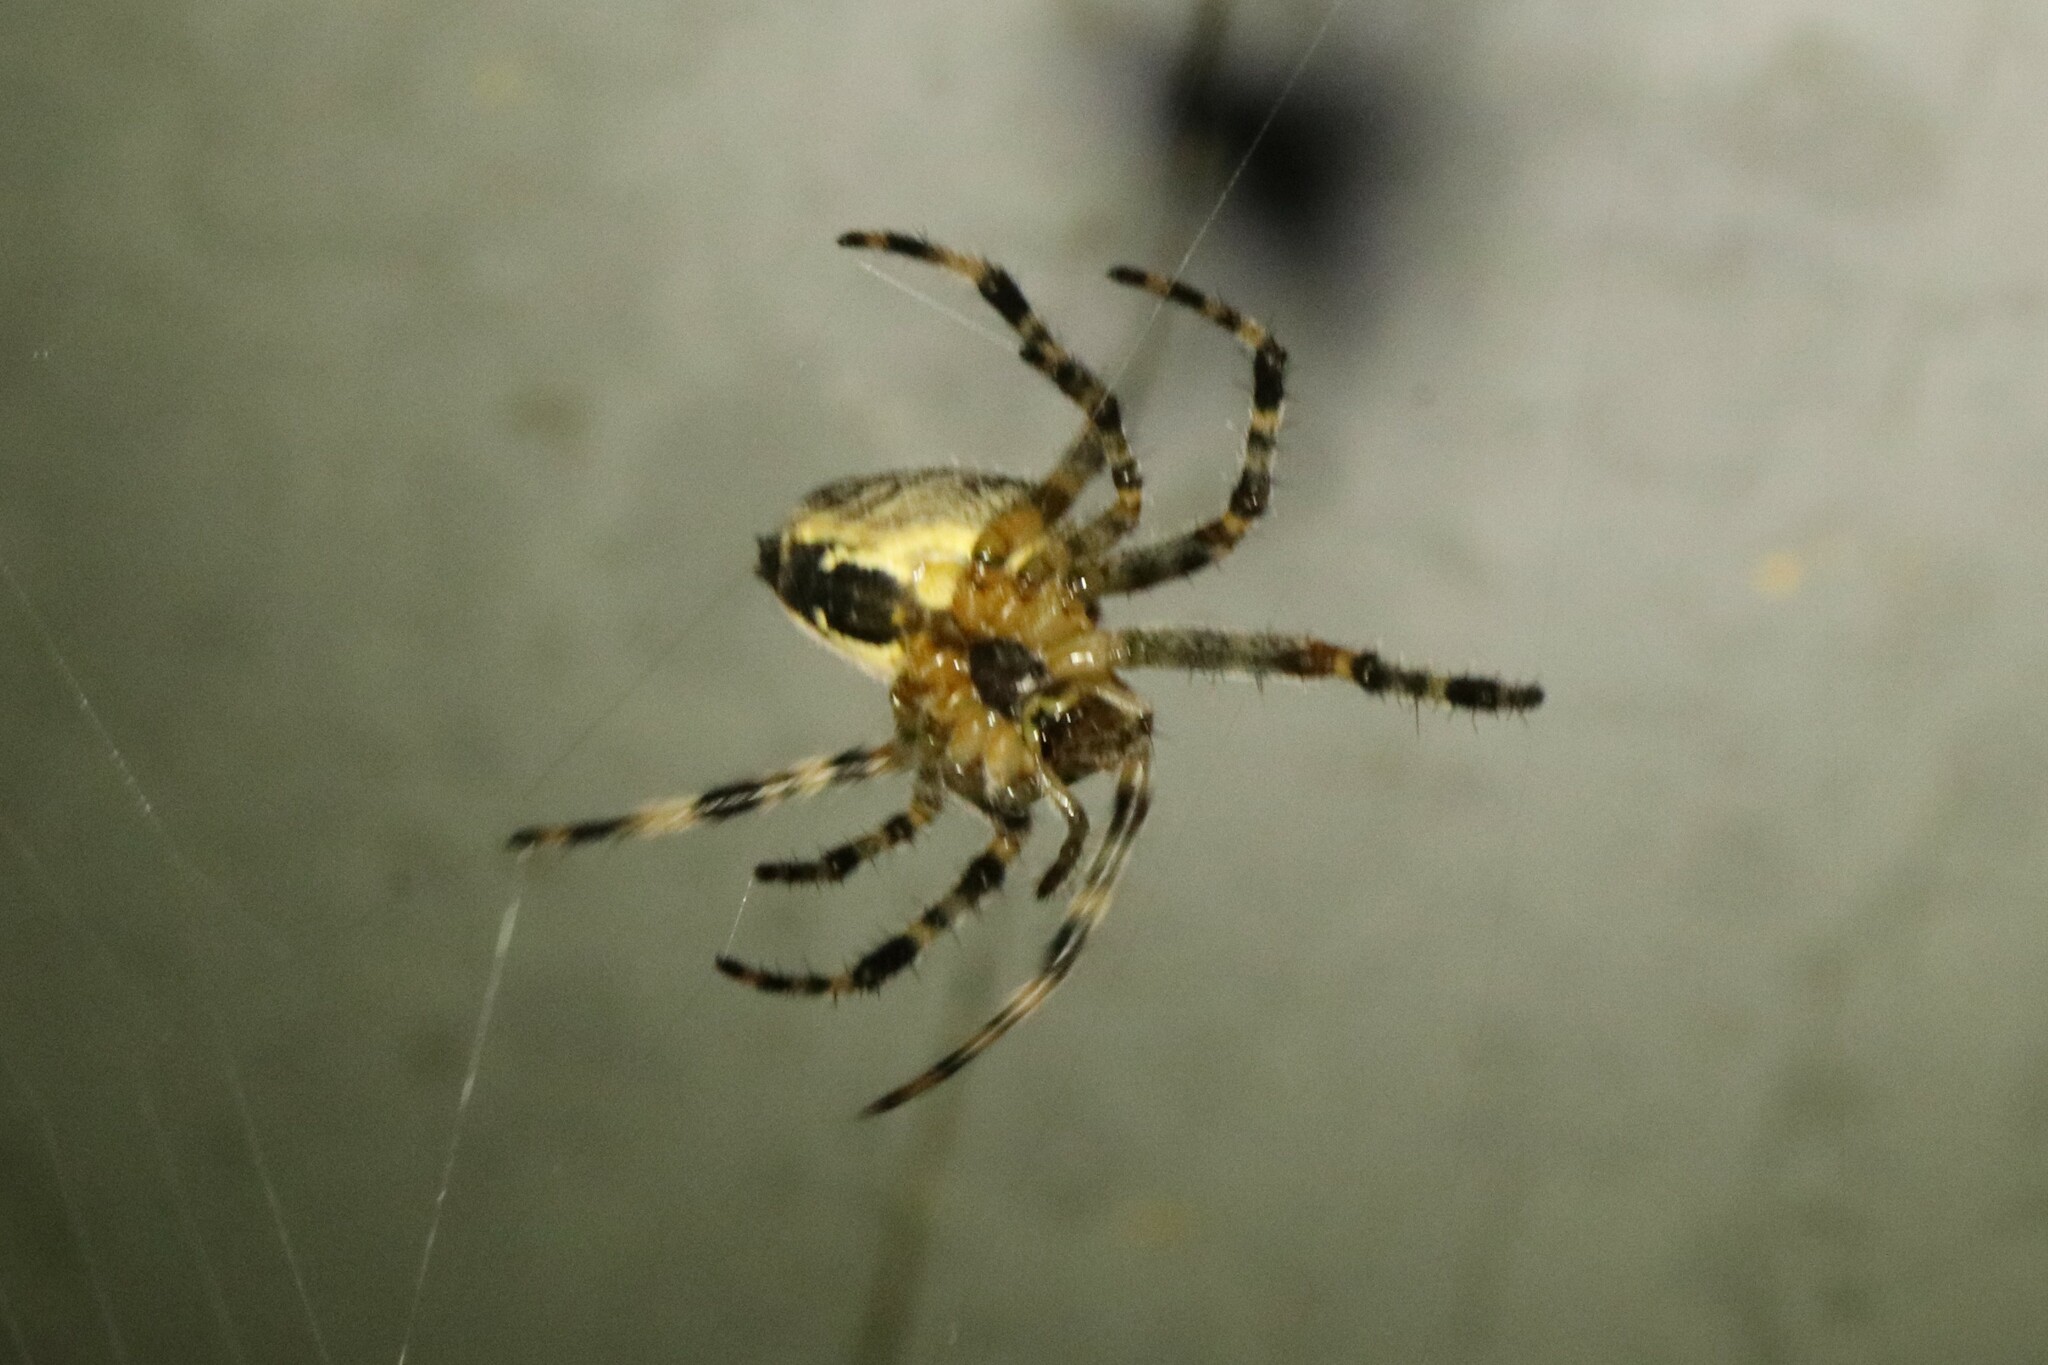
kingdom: Animalia
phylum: Arthropoda
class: Arachnida
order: Araneae
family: Araneidae
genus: Araneus
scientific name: Araneus diadematus
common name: Cross orbweaver
